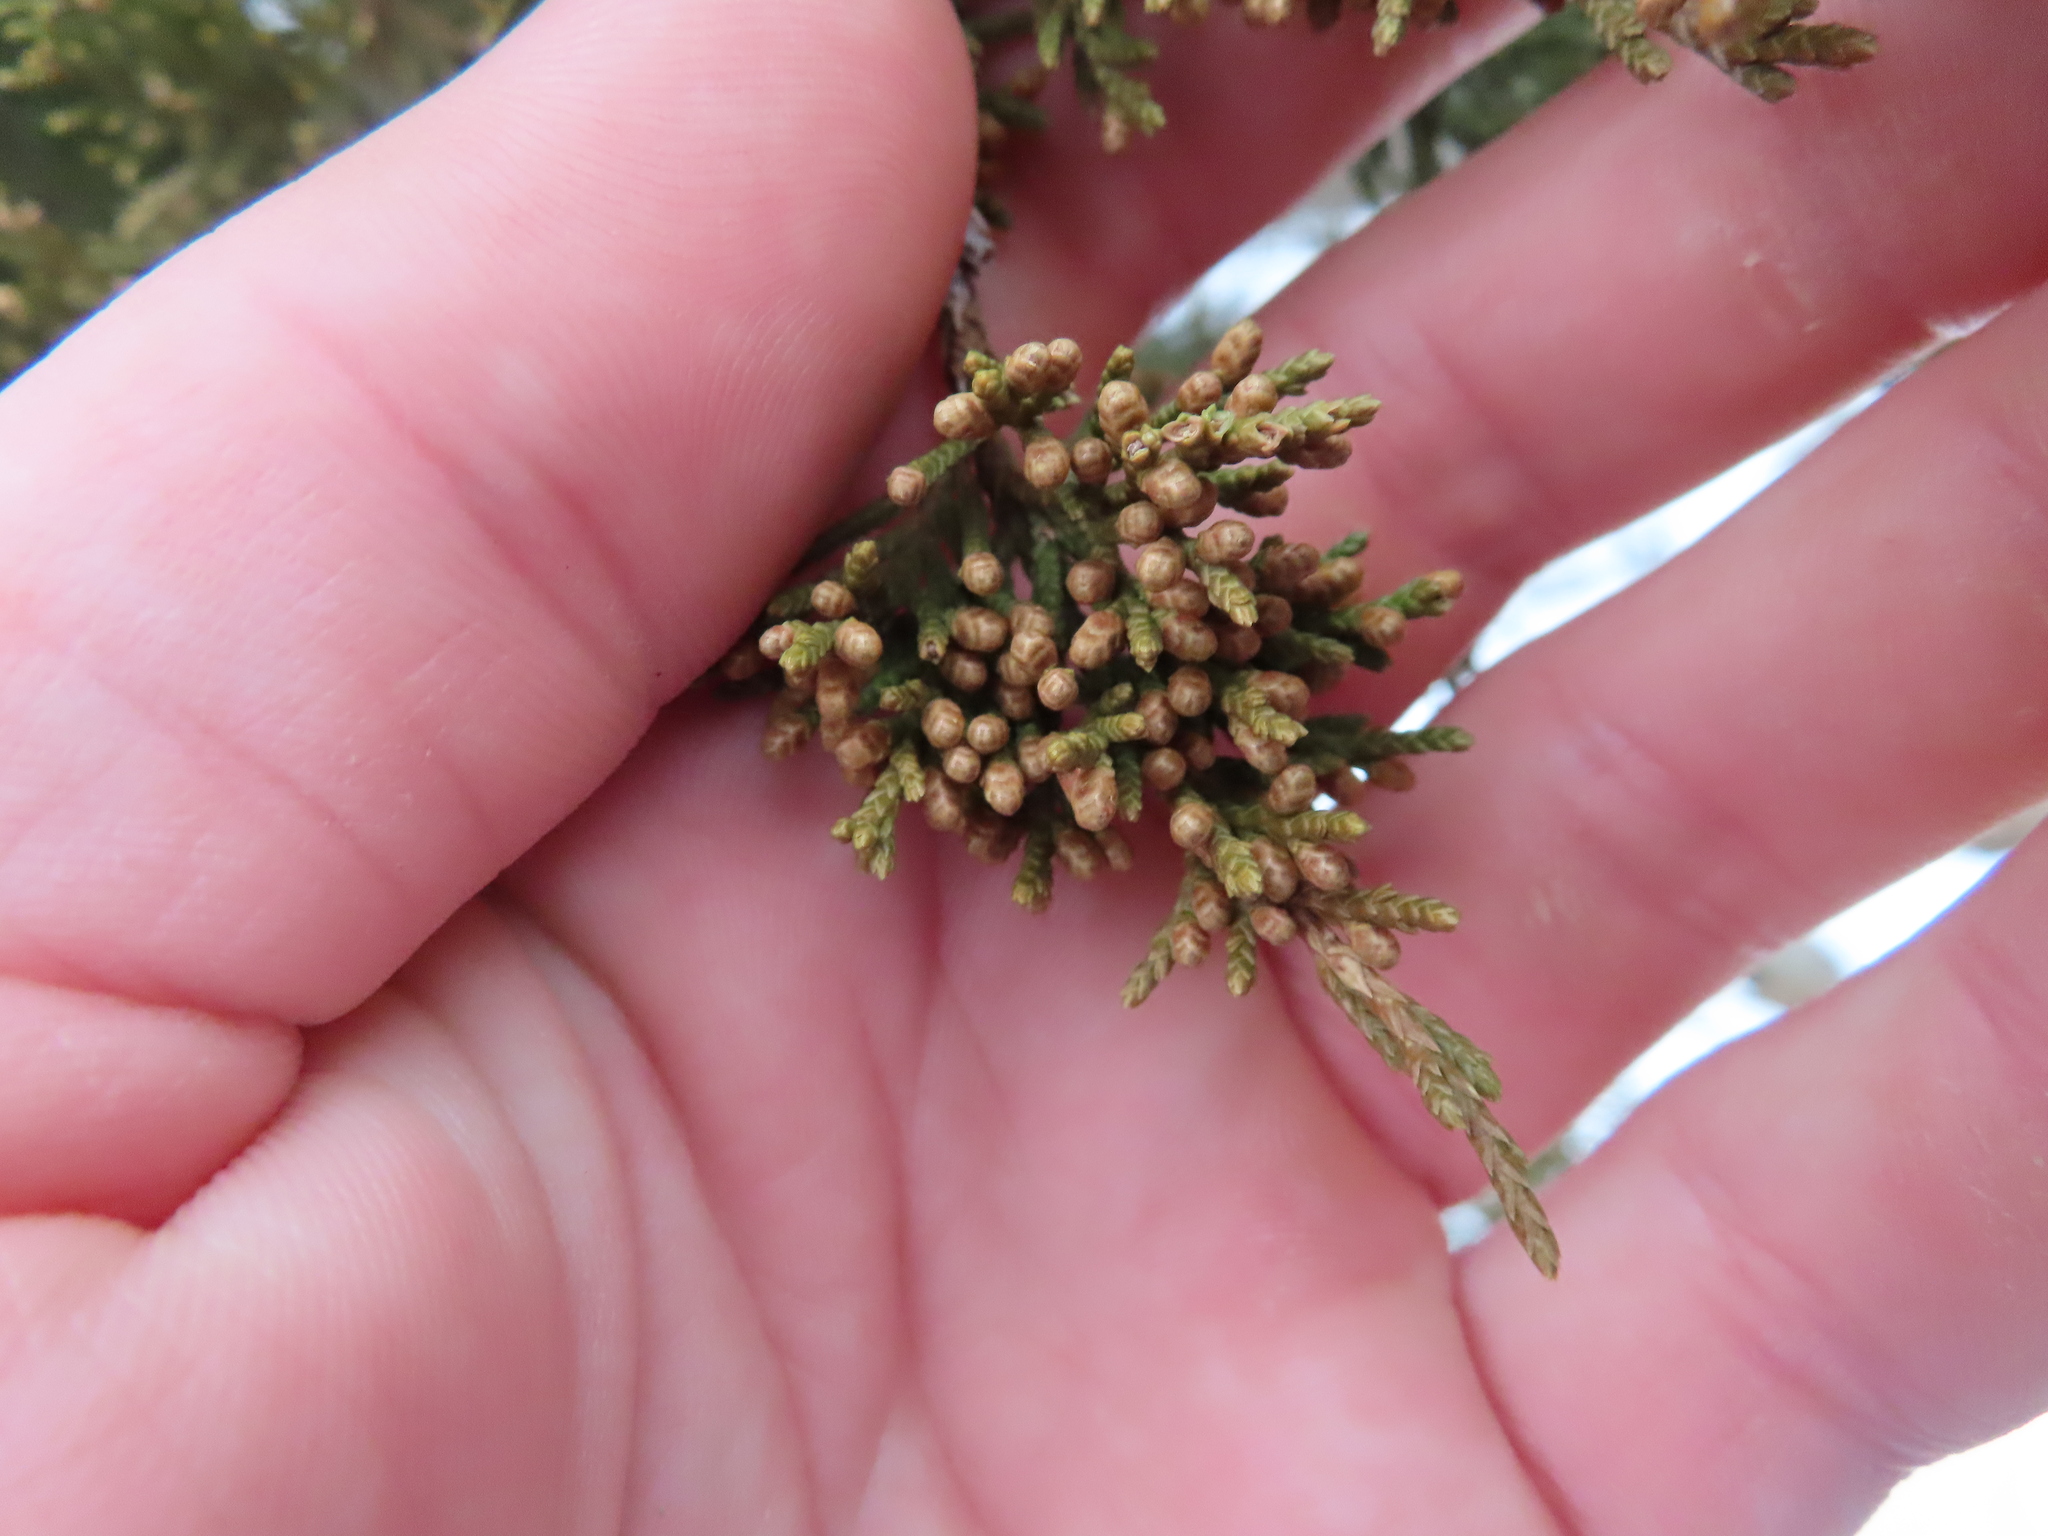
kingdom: Plantae
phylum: Tracheophyta
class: Pinopsida
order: Pinales
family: Cupressaceae
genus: Juniperus
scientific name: Juniperus virginiana
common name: Red juniper
